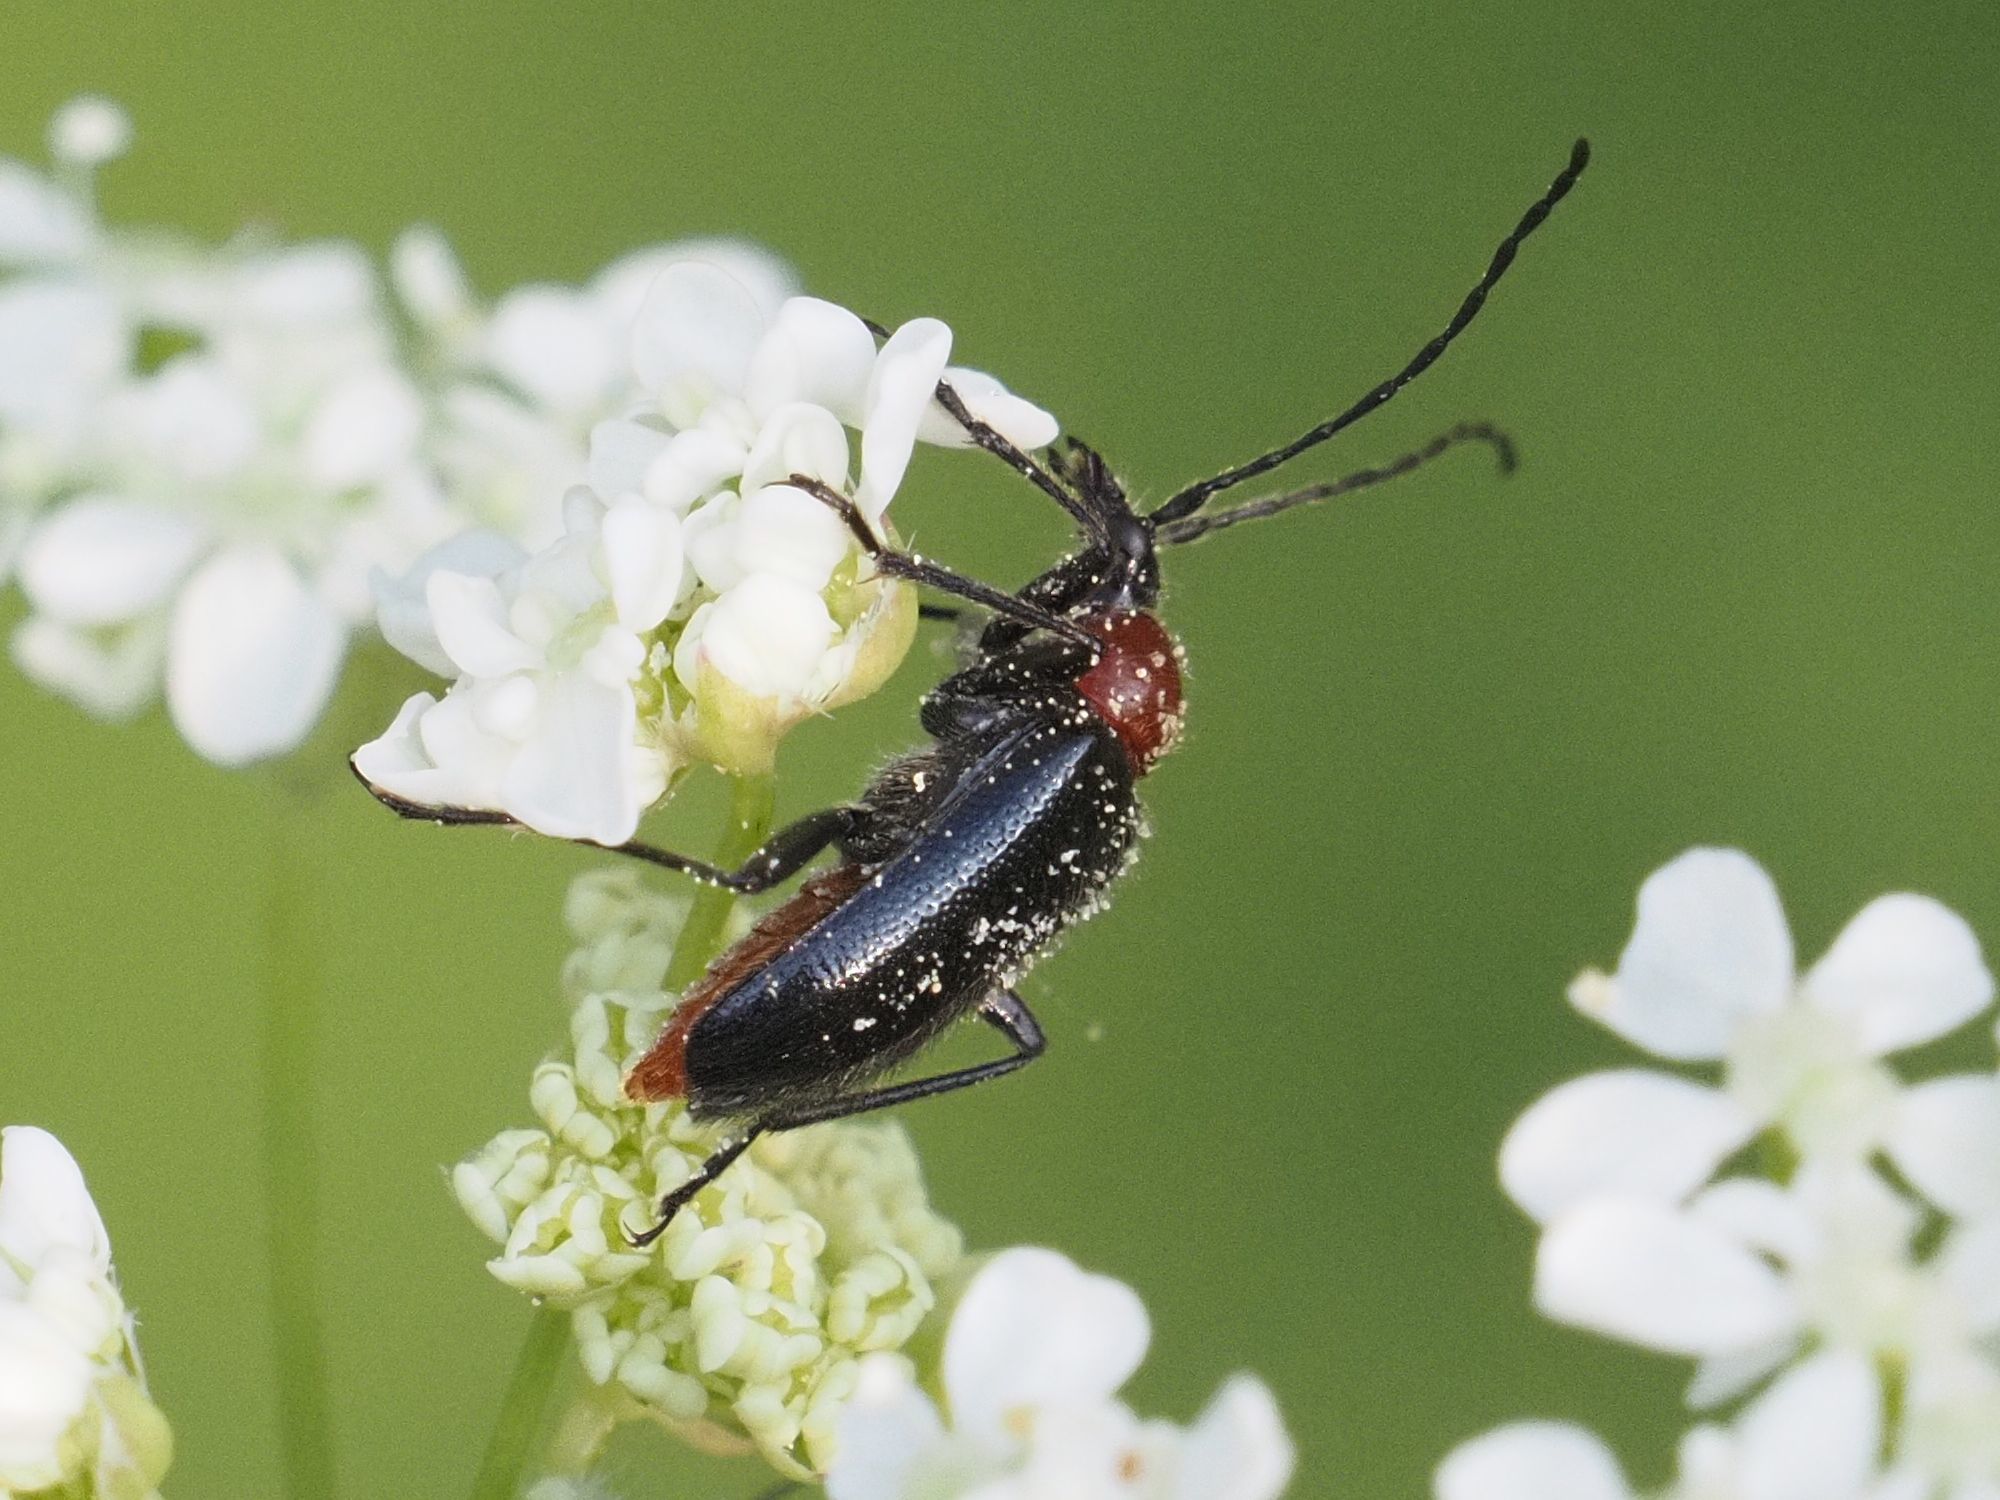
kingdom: Animalia
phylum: Arthropoda
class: Insecta
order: Coleoptera
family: Cerambycidae
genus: Dinoptera
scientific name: Dinoptera collaris
